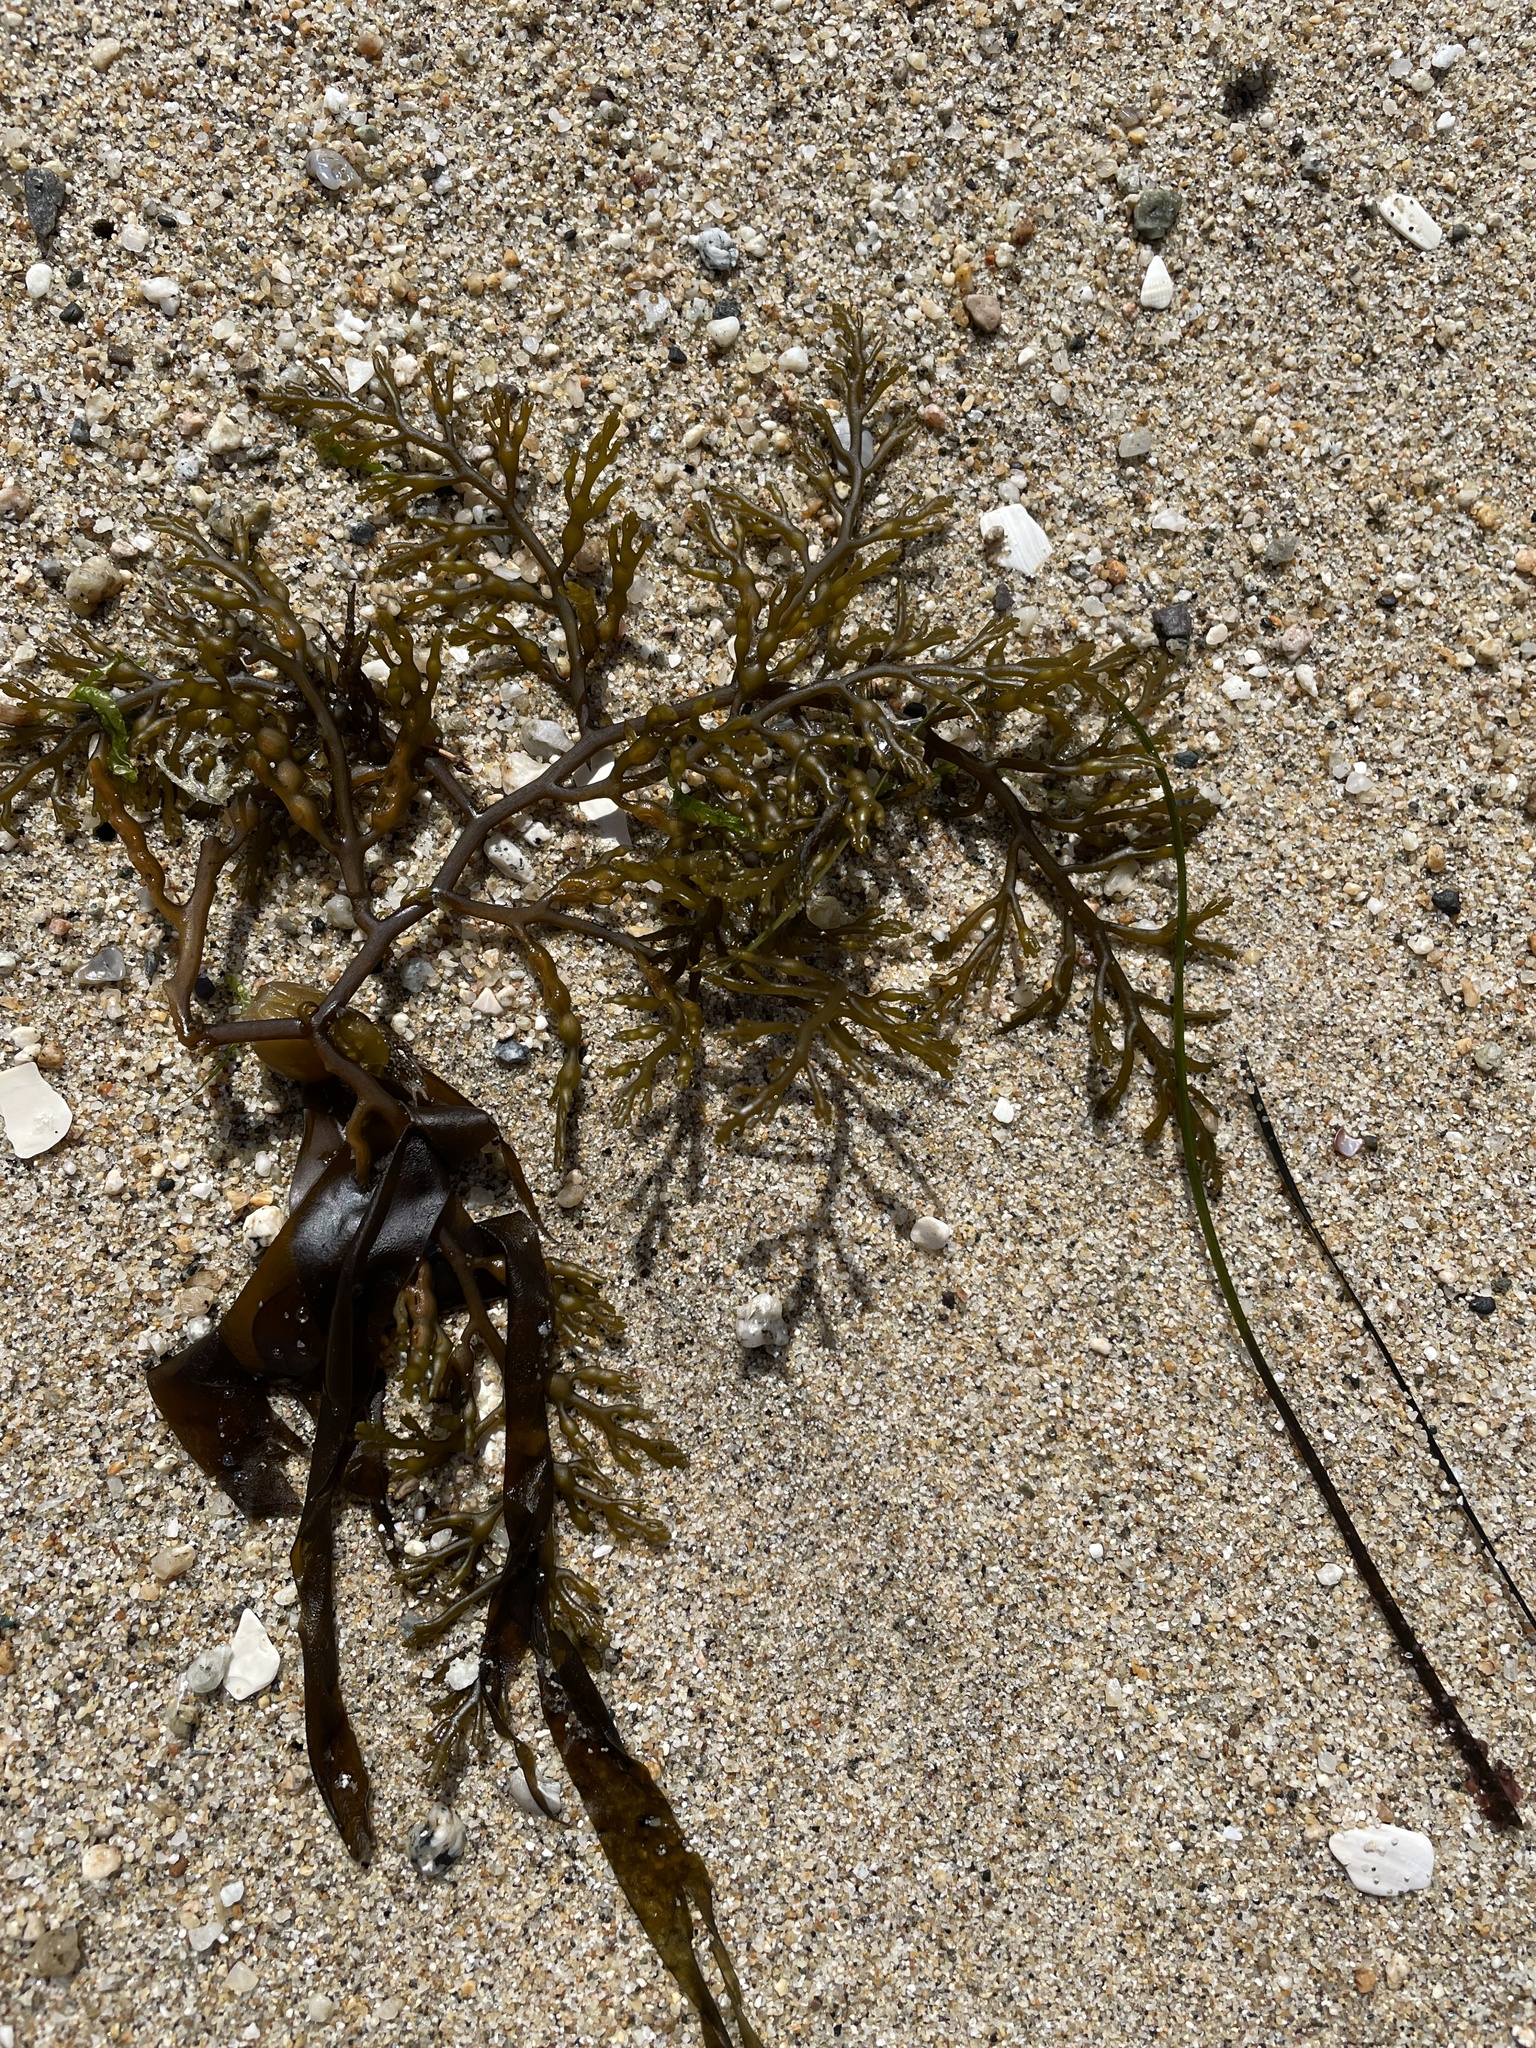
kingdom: Chromista
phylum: Ochrophyta
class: Phaeophyceae
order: Fucales
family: Sargassaceae
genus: Stephanocystis
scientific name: Stephanocystis
